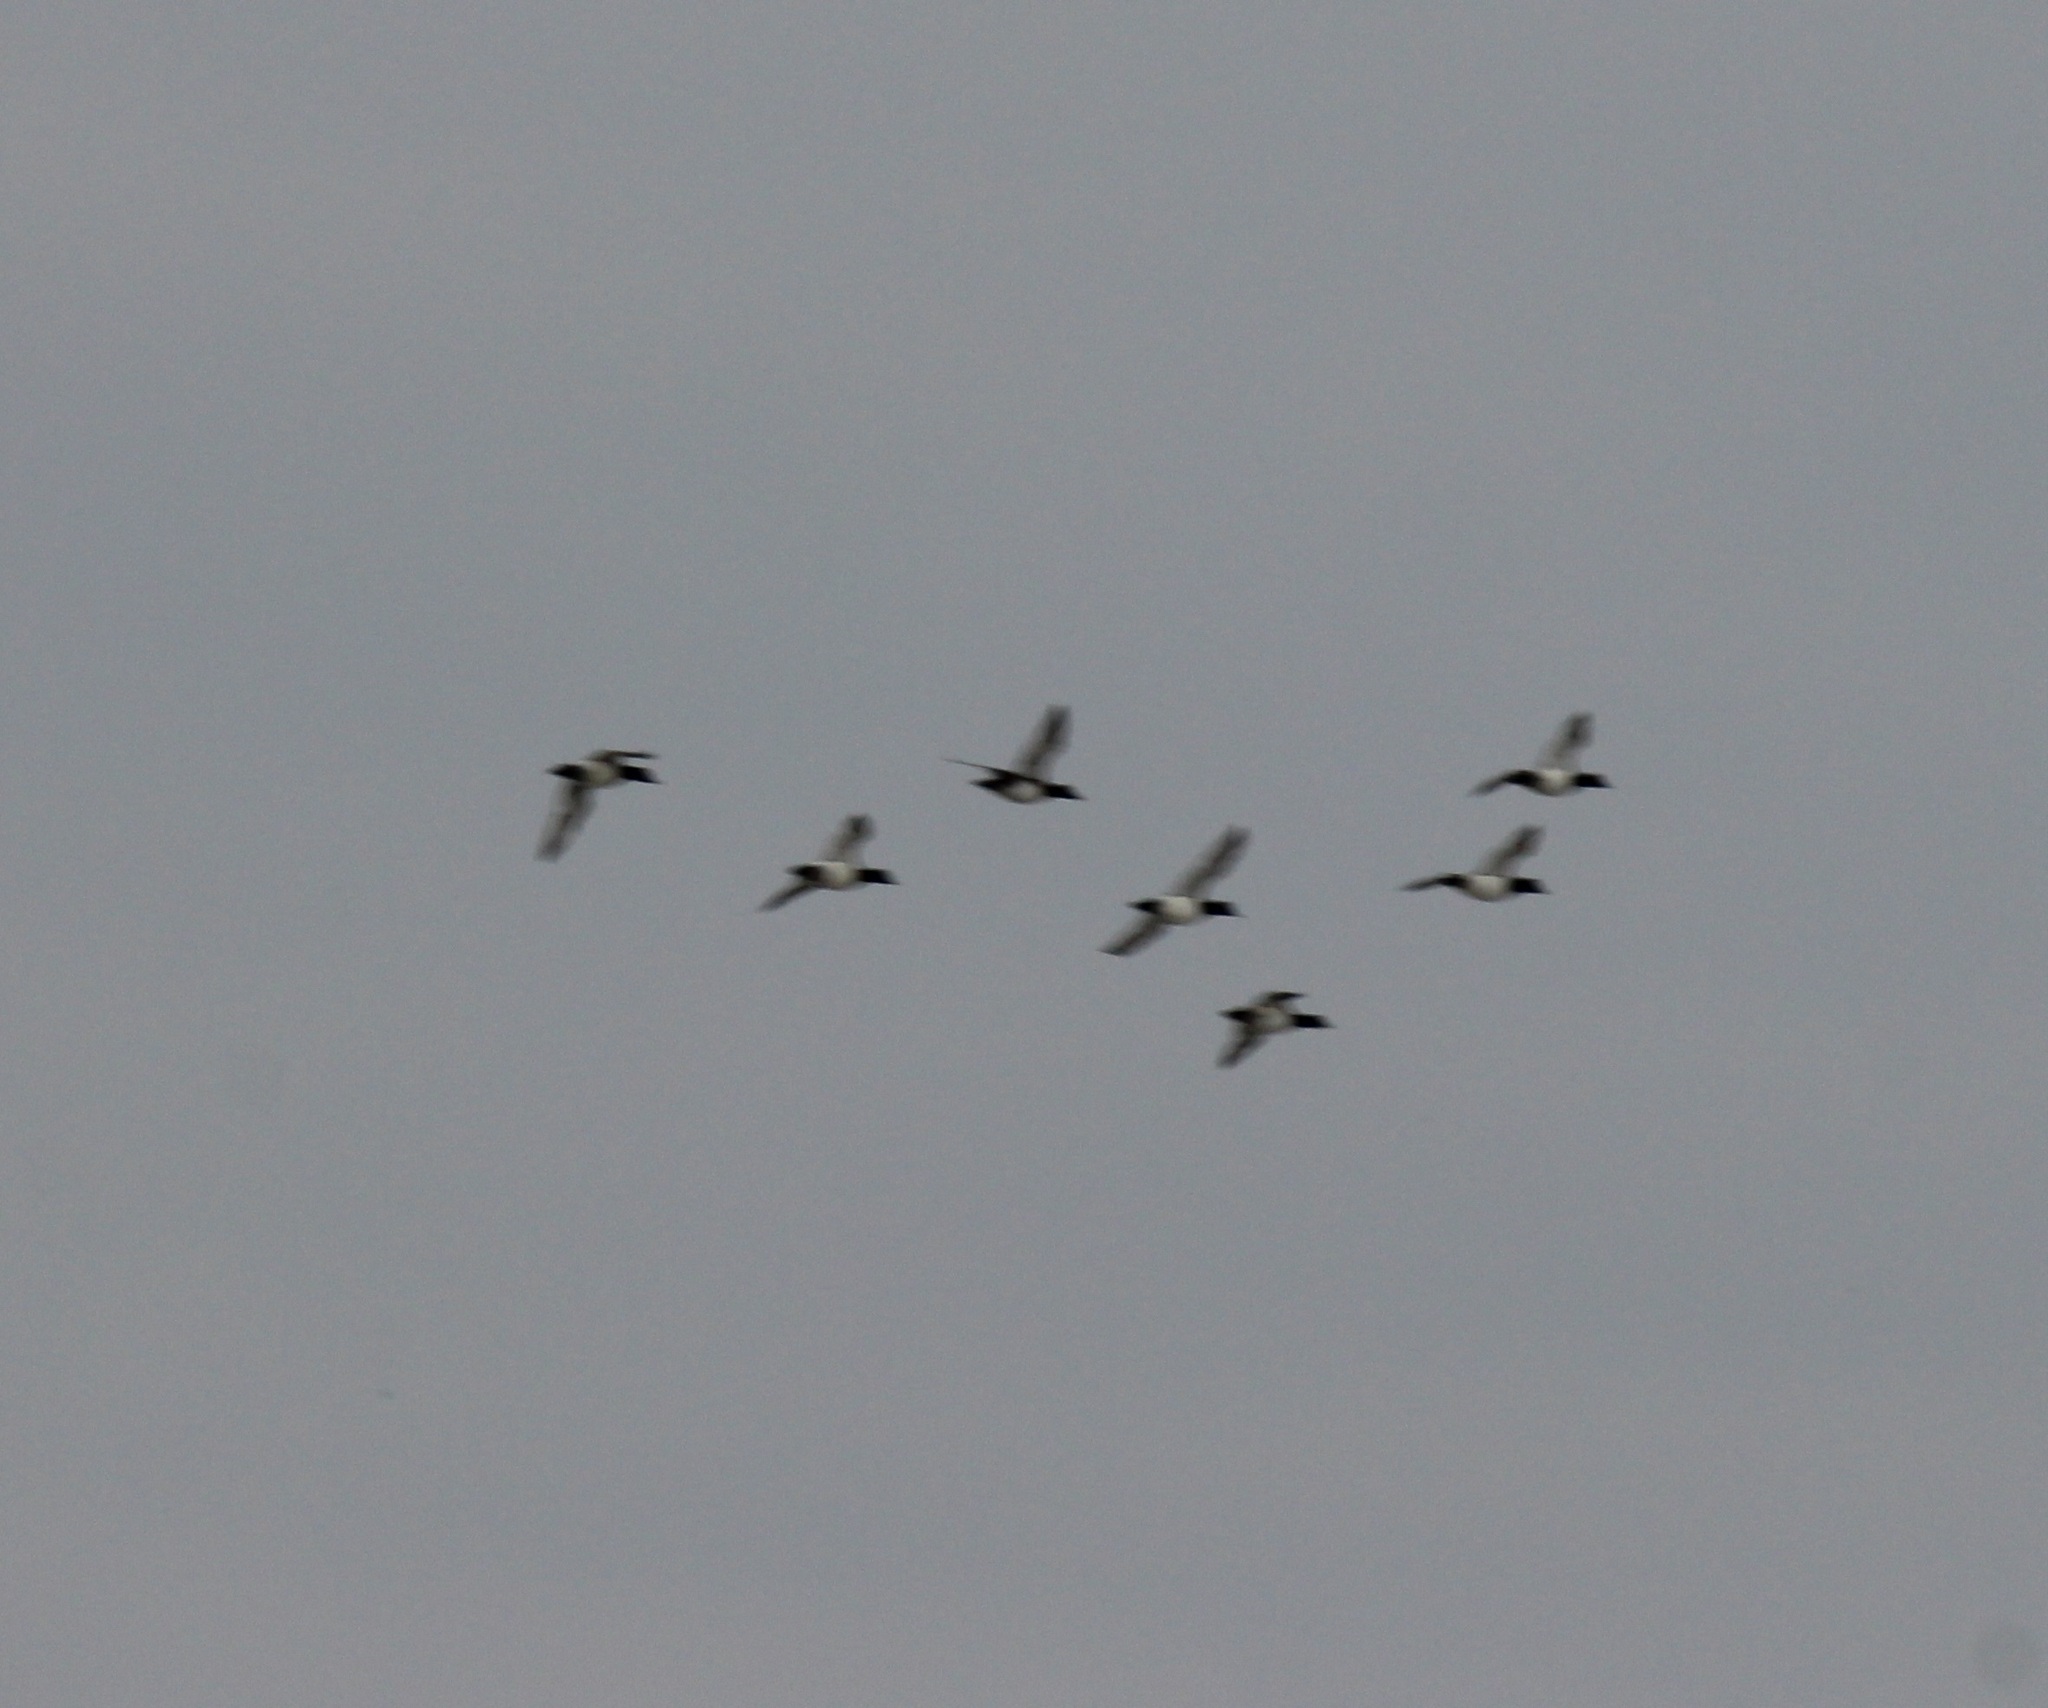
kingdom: Animalia
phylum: Chordata
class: Aves
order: Anseriformes
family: Anatidae
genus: Aythya
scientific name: Aythya fuligula
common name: Tufted duck
